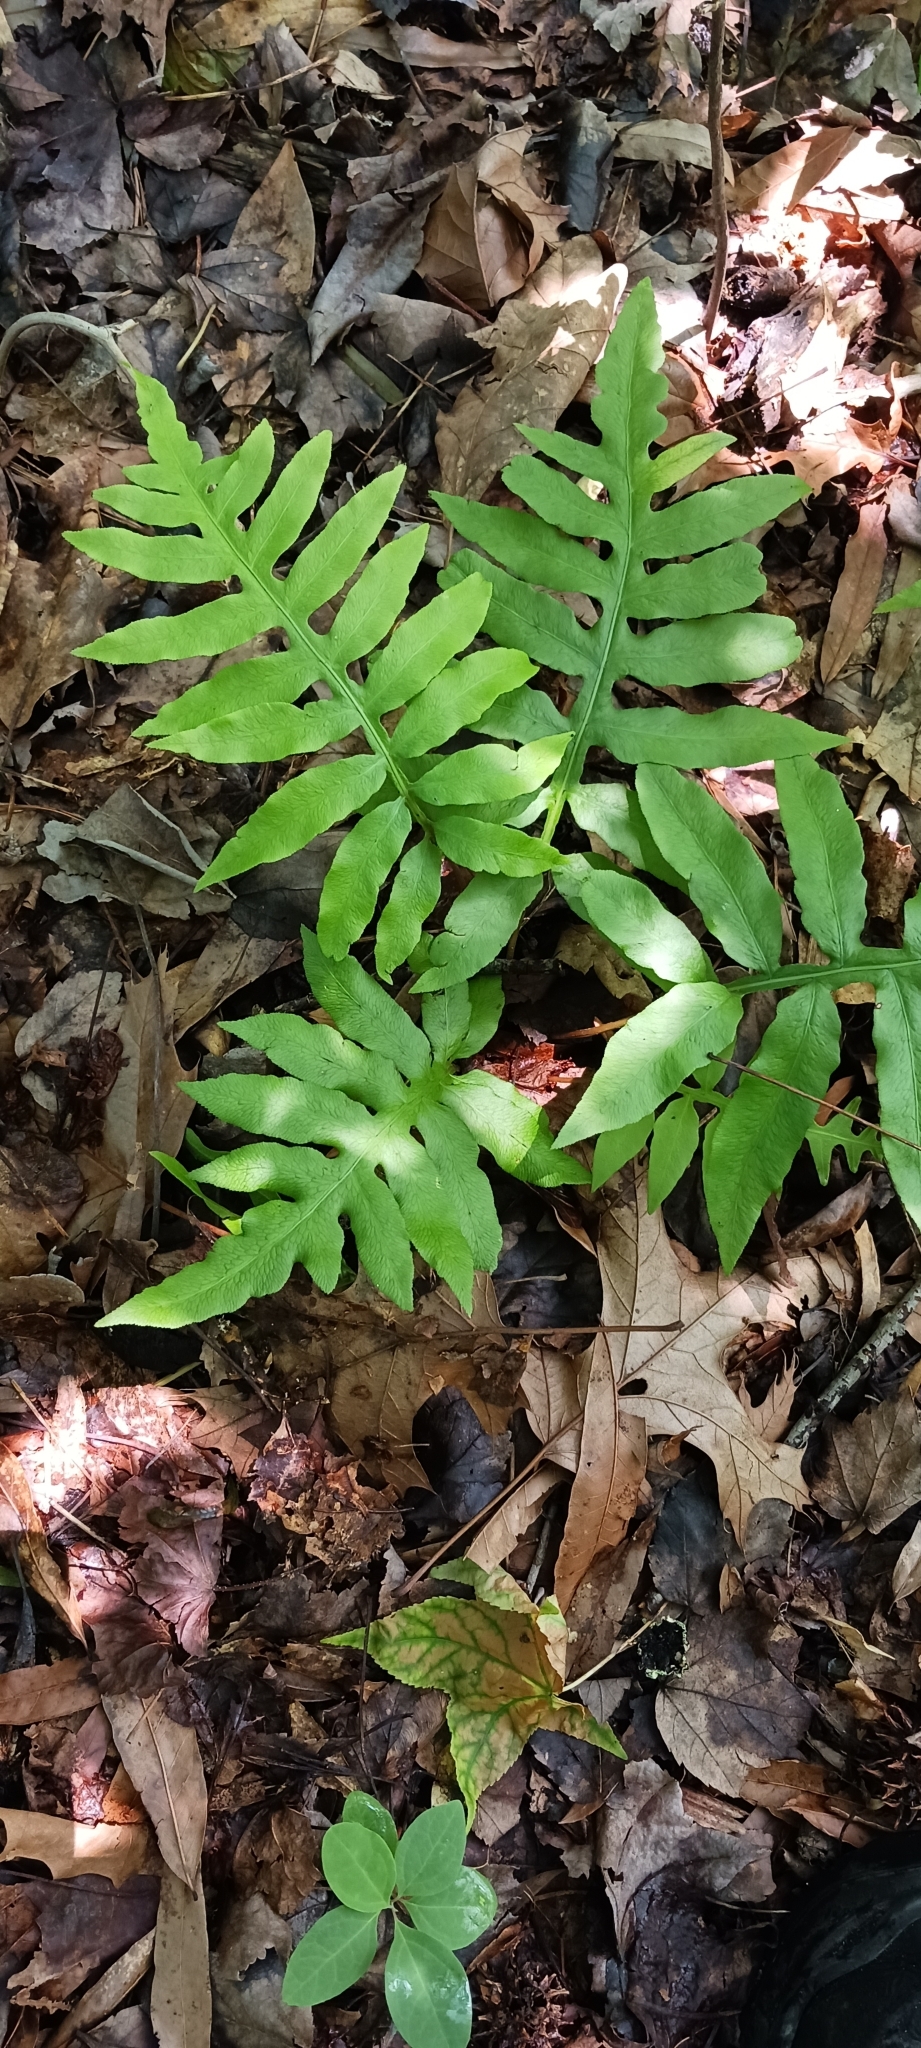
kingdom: Plantae
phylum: Tracheophyta
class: Polypodiopsida
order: Polypodiales
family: Blechnaceae
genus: Lorinseria
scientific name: Lorinseria areolata
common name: Dwarf chain fern
